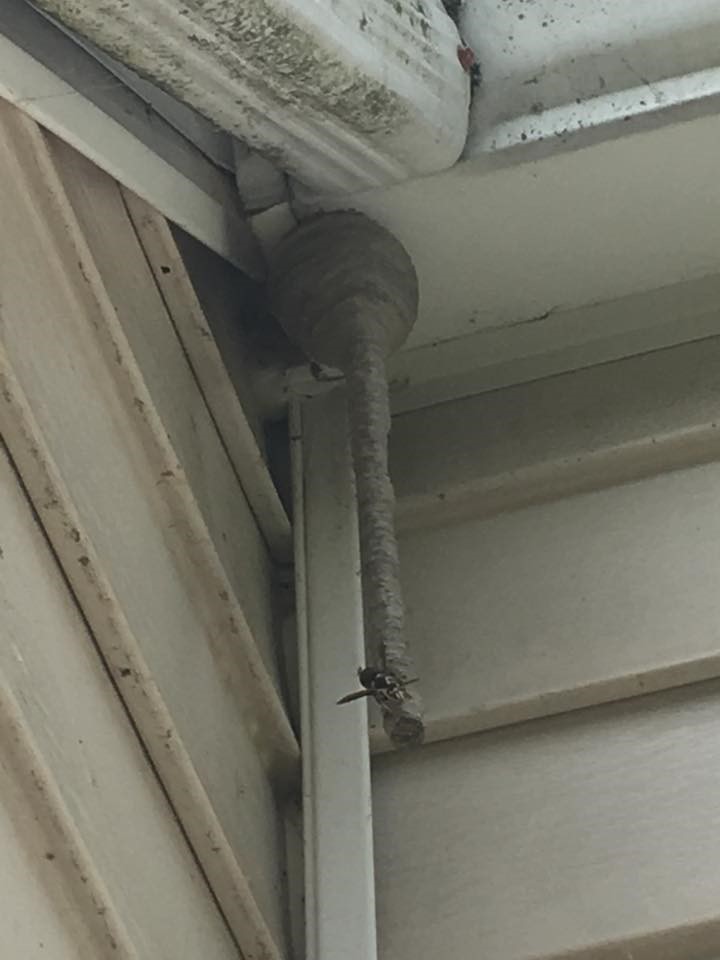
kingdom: Animalia
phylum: Arthropoda
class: Insecta
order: Hymenoptera
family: Vespidae
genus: Dolichovespula
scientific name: Dolichovespula maculata
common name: Bald-faced hornet
